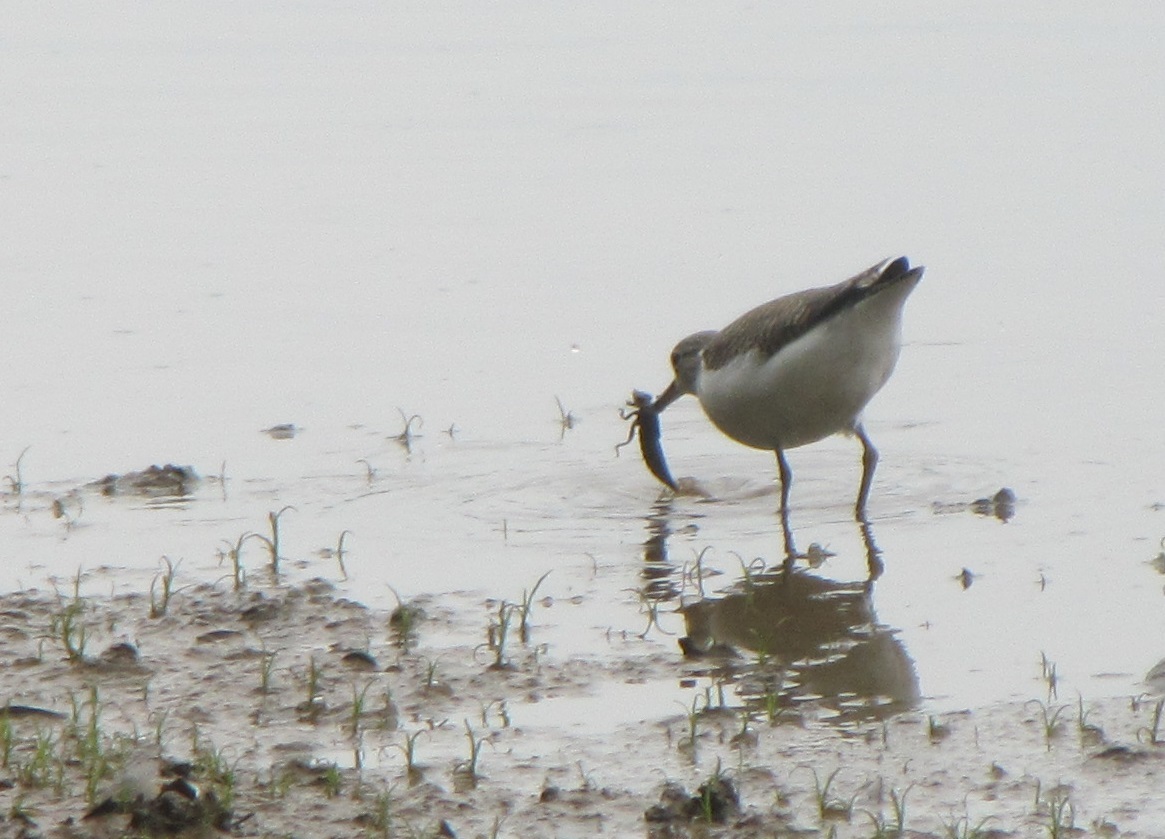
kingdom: Animalia
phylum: Chordata
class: Aves
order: Charadriiformes
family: Scolopacidae
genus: Actitis
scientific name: Actitis macularius
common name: Spotted sandpiper
